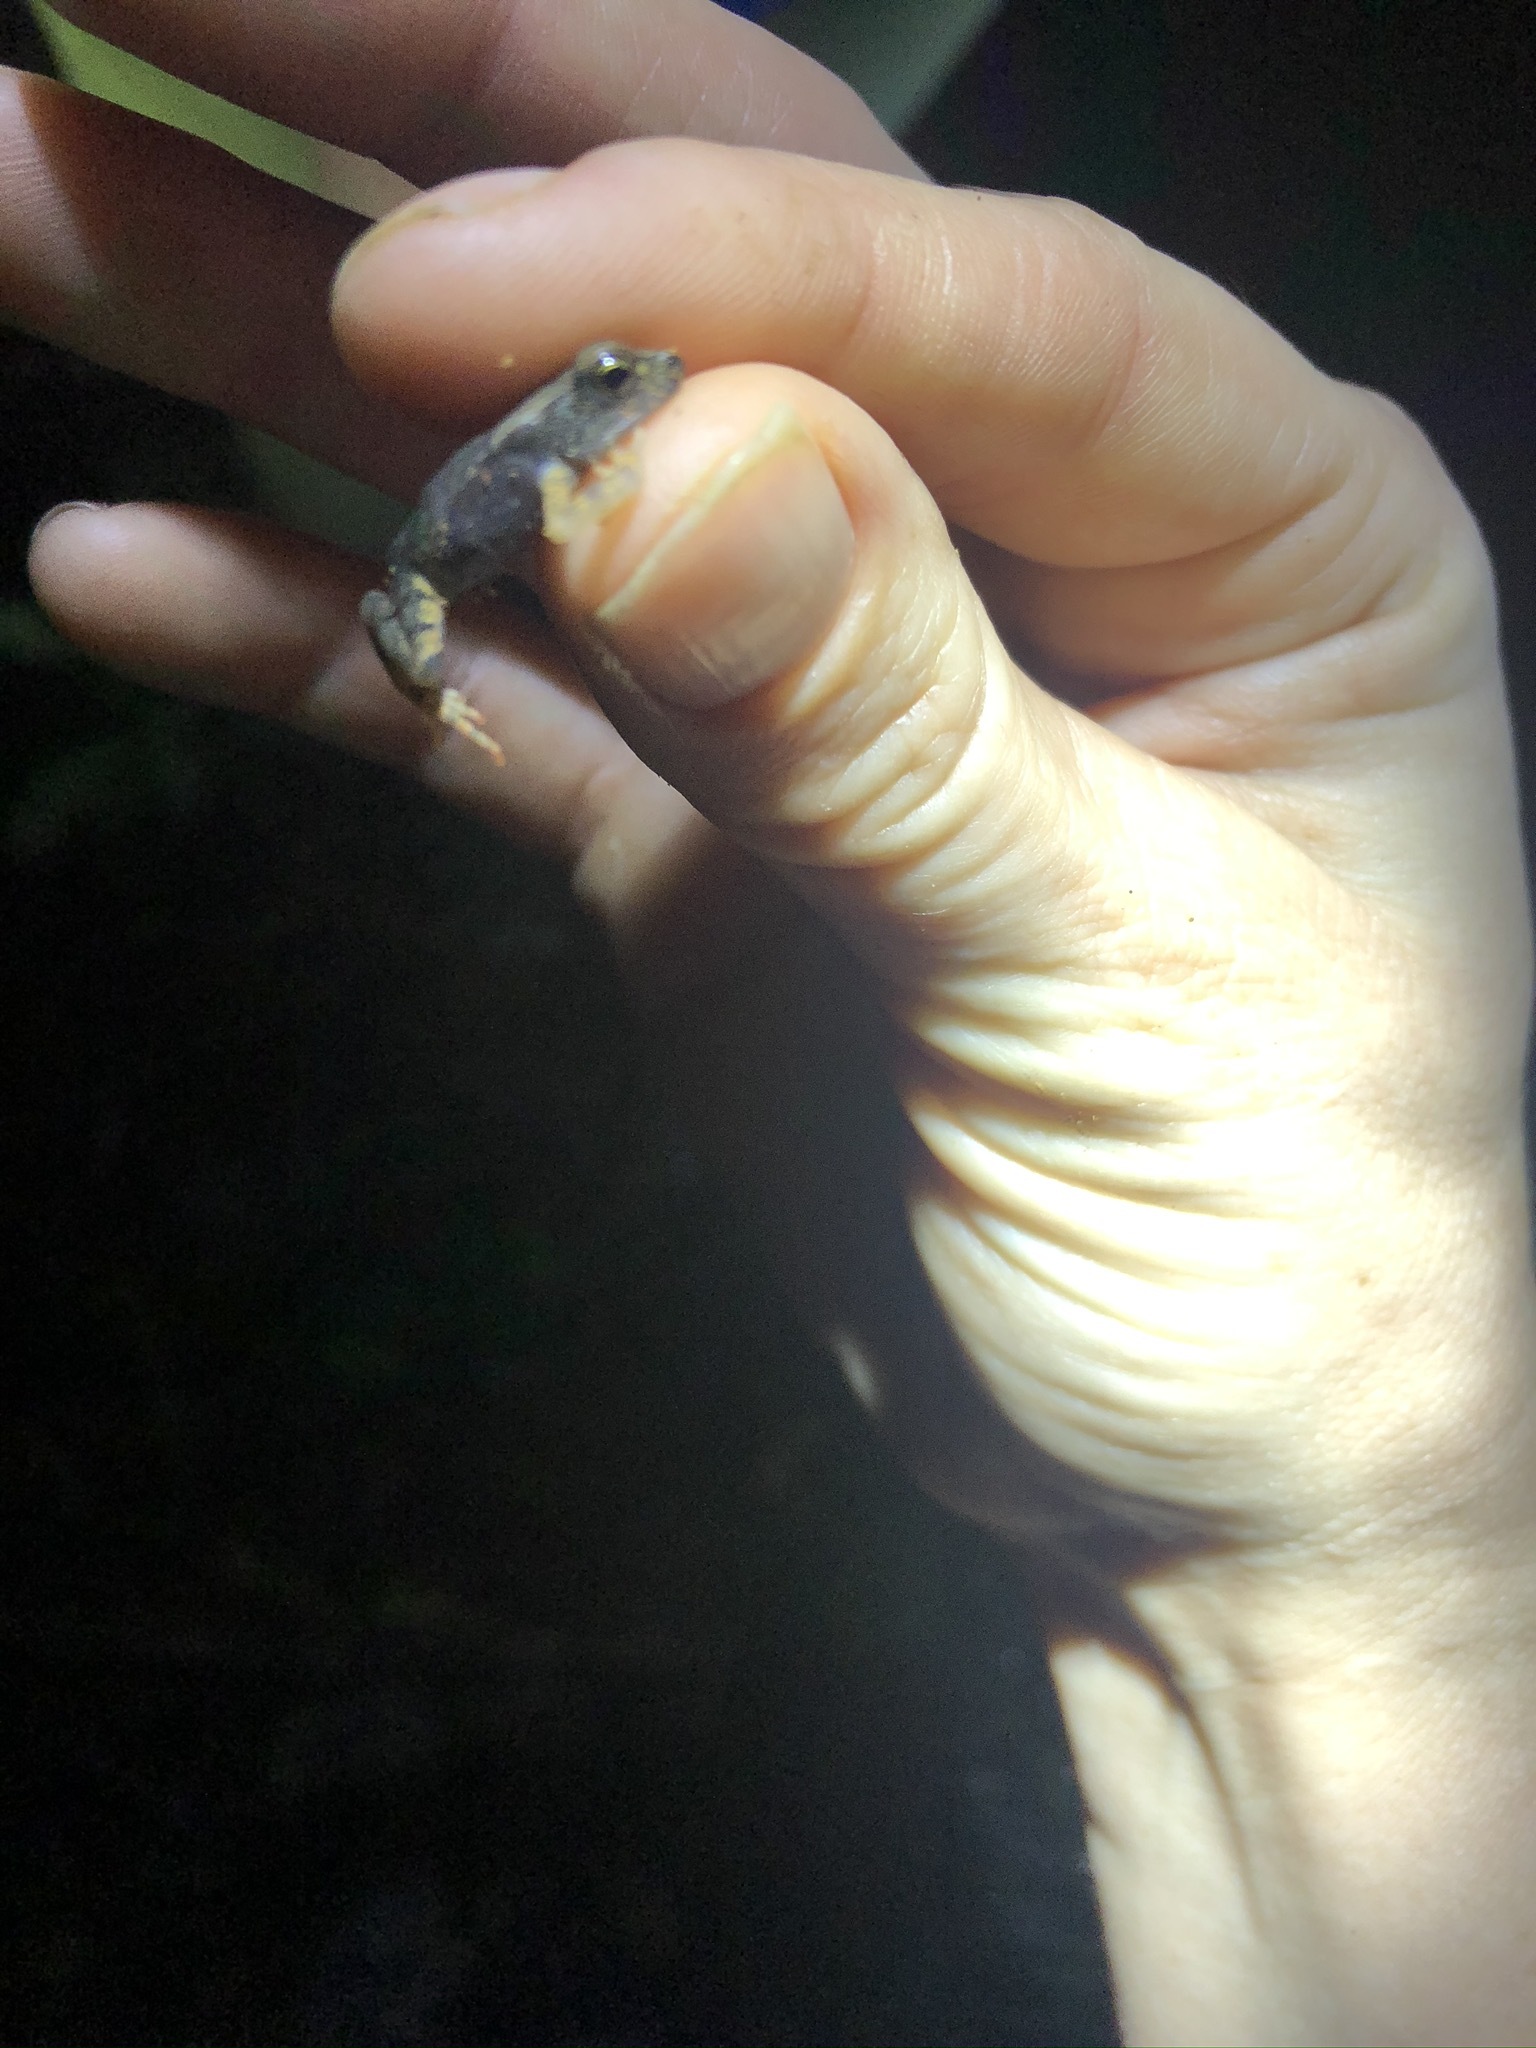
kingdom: Animalia
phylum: Chordata
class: Amphibia
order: Anura
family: Bufonidae
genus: Rhaebo
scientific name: Rhaebo haematiticus
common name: Truando toad
